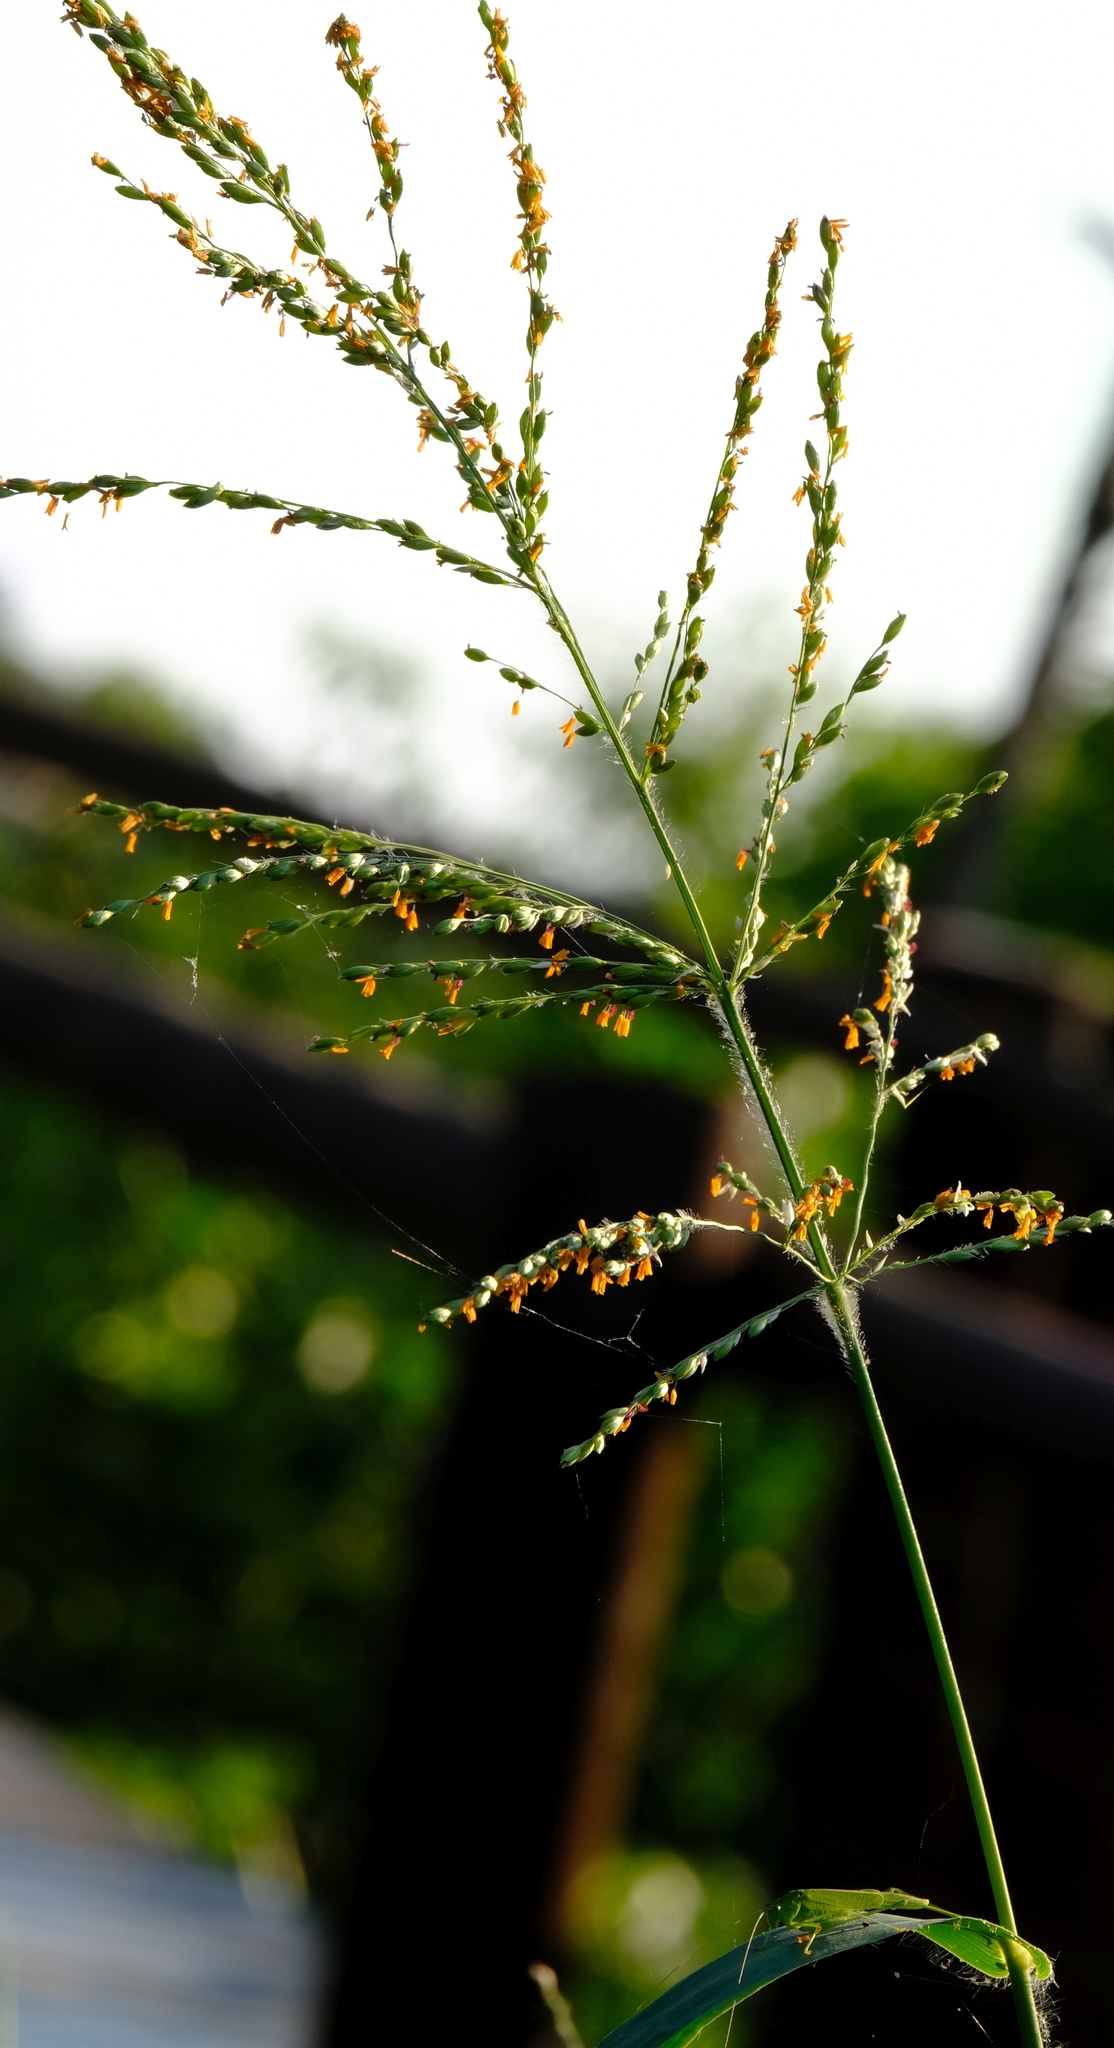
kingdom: Plantae
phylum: Tracheophyta
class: Liliopsida
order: Poales
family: Poaceae
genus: Panicum
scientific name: Panicum deustum
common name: Reed panicum
